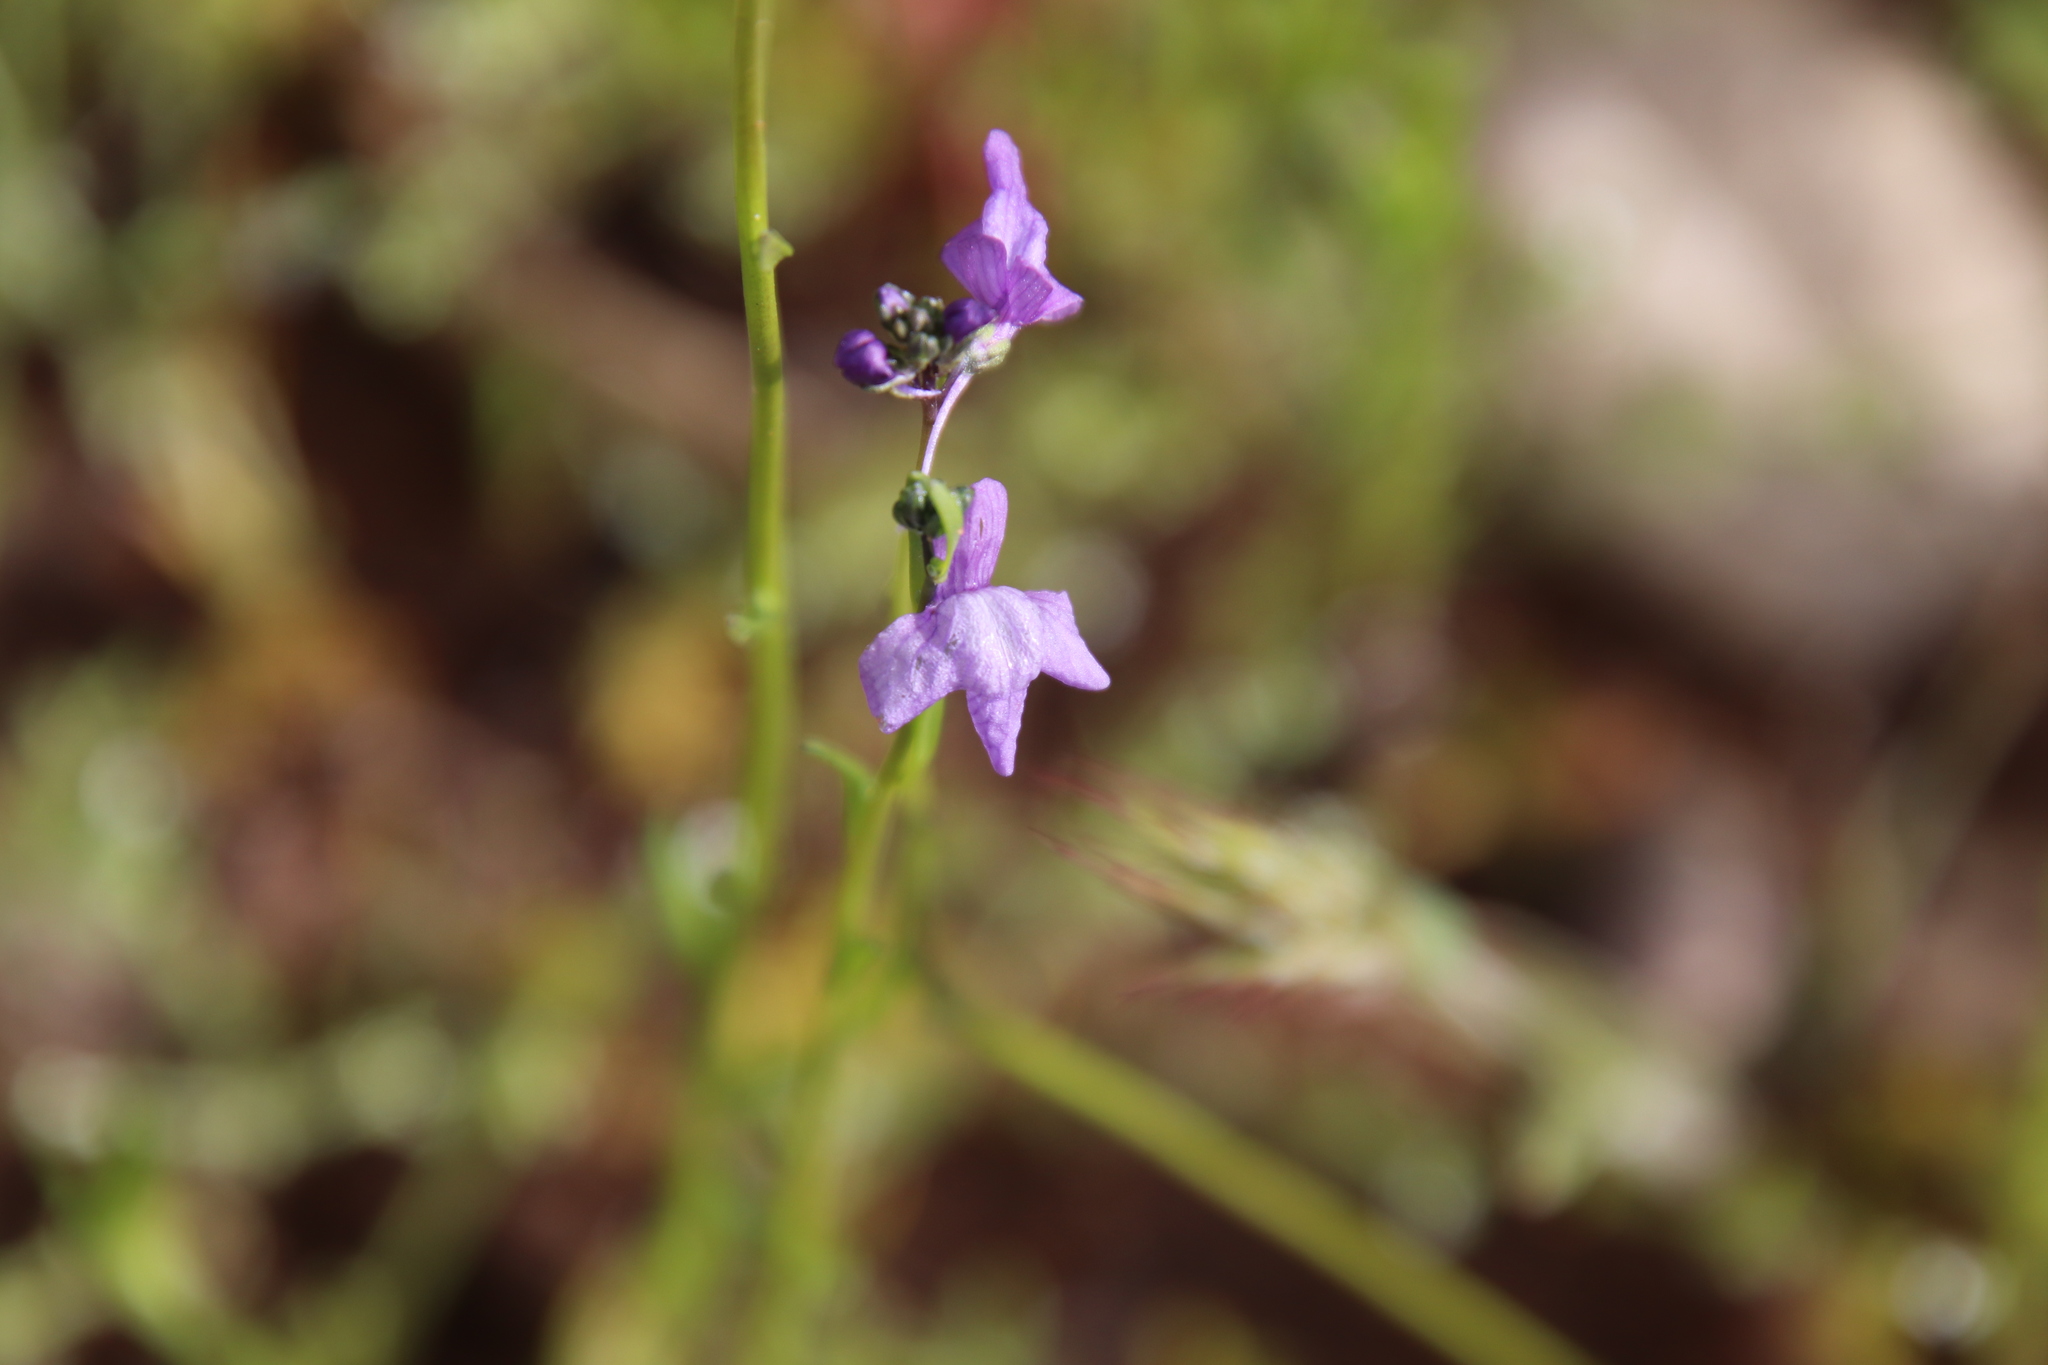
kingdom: Plantae
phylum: Tracheophyta
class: Magnoliopsida
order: Lamiales
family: Plantaginaceae
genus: Nuttallanthus
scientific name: Nuttallanthus texanus
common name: Texas toadflax
